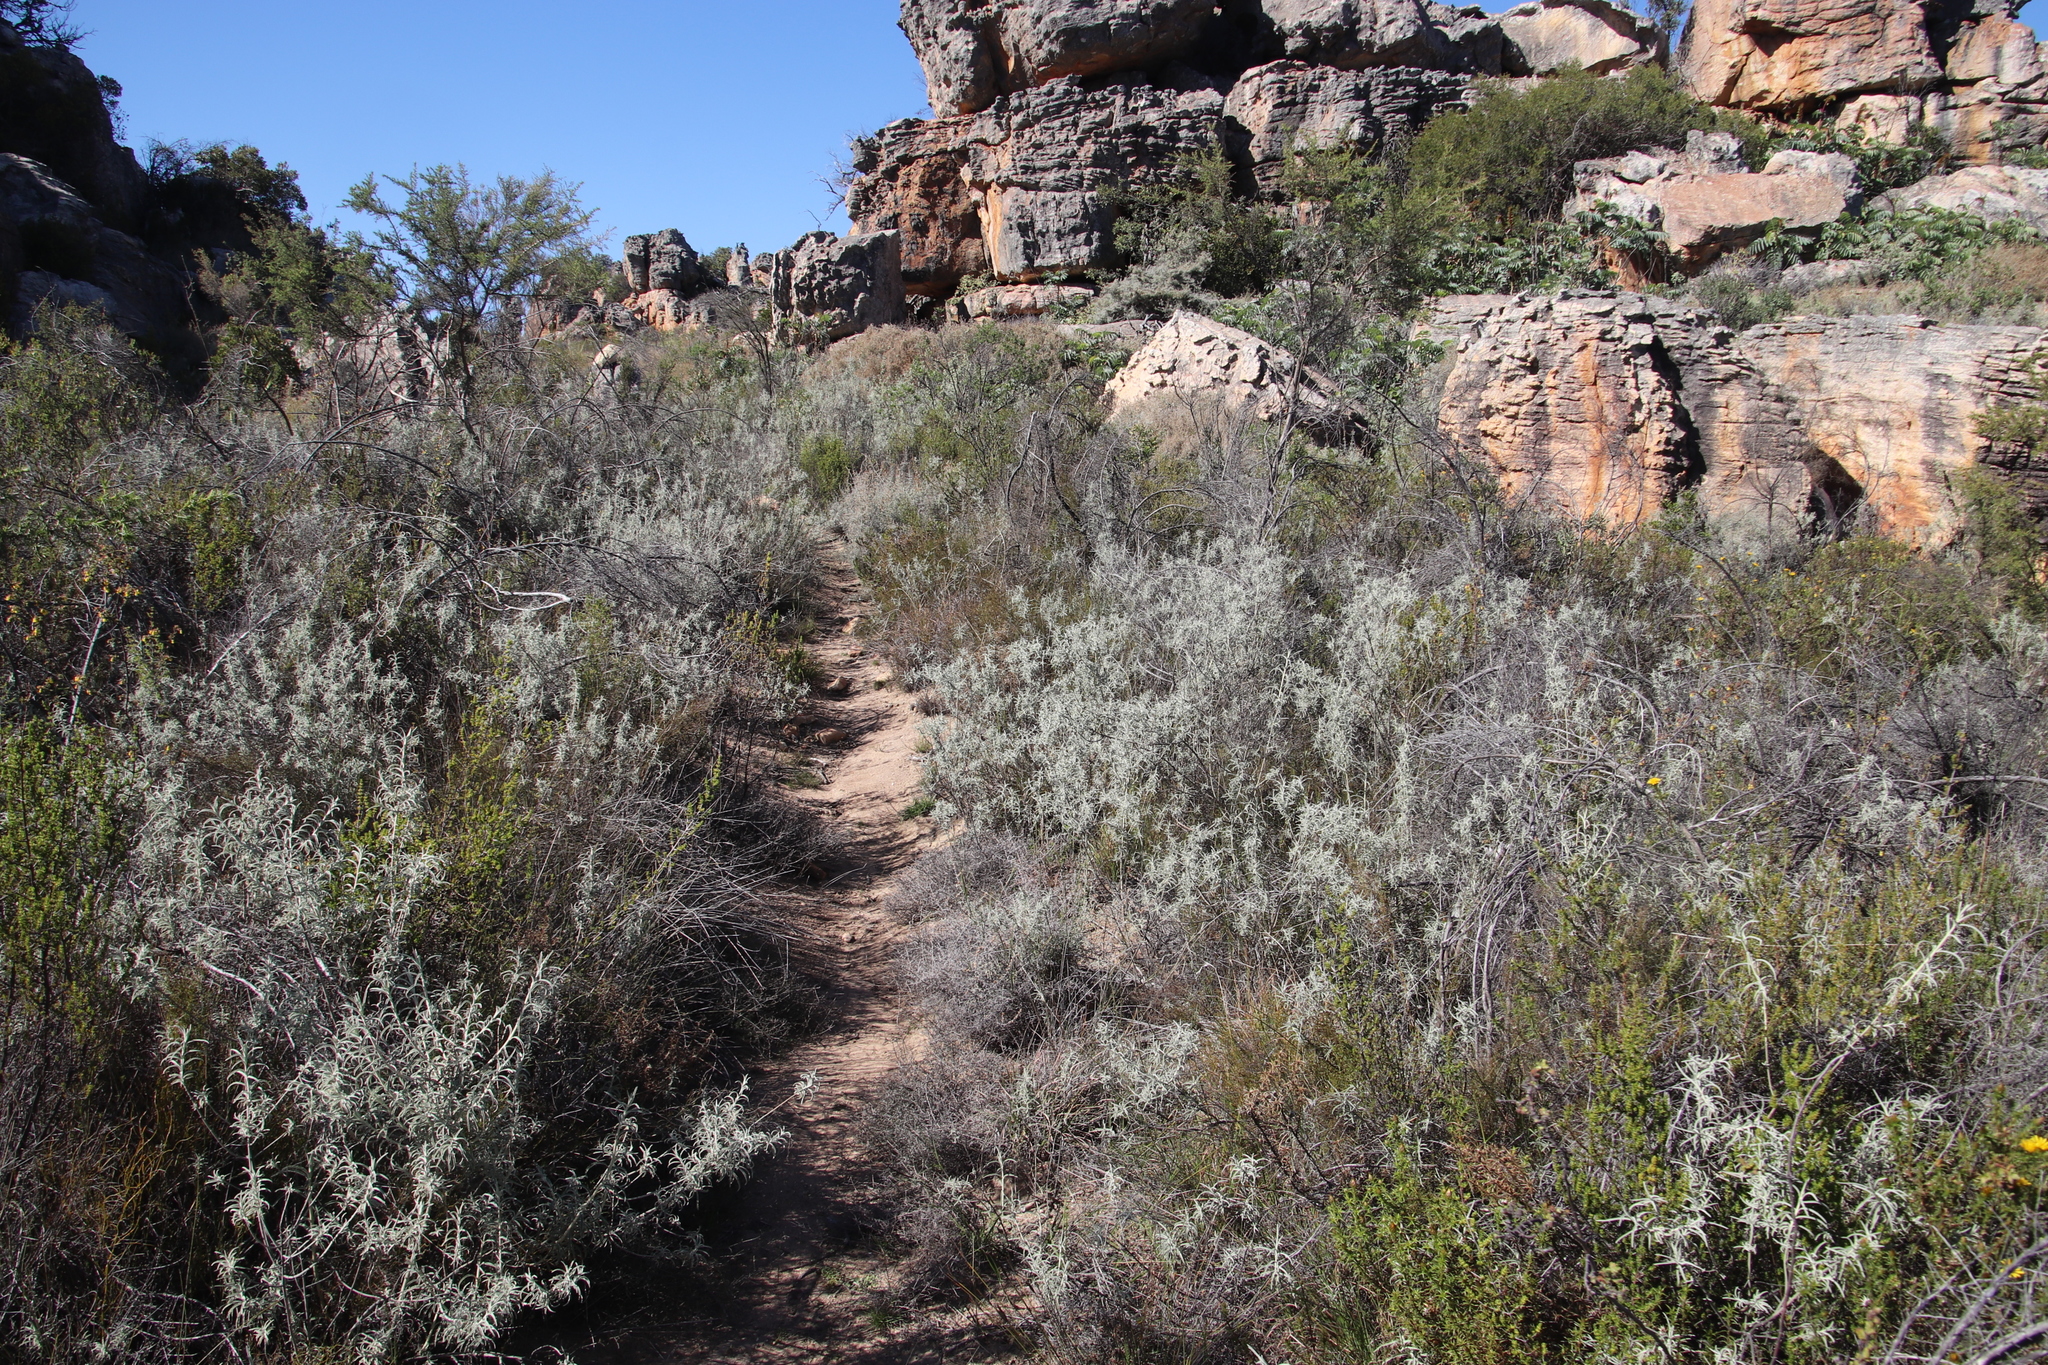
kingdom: Plantae
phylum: Tracheophyta
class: Magnoliopsida
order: Lamiales
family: Lamiaceae
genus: Stachys
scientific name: Stachys rugosa
